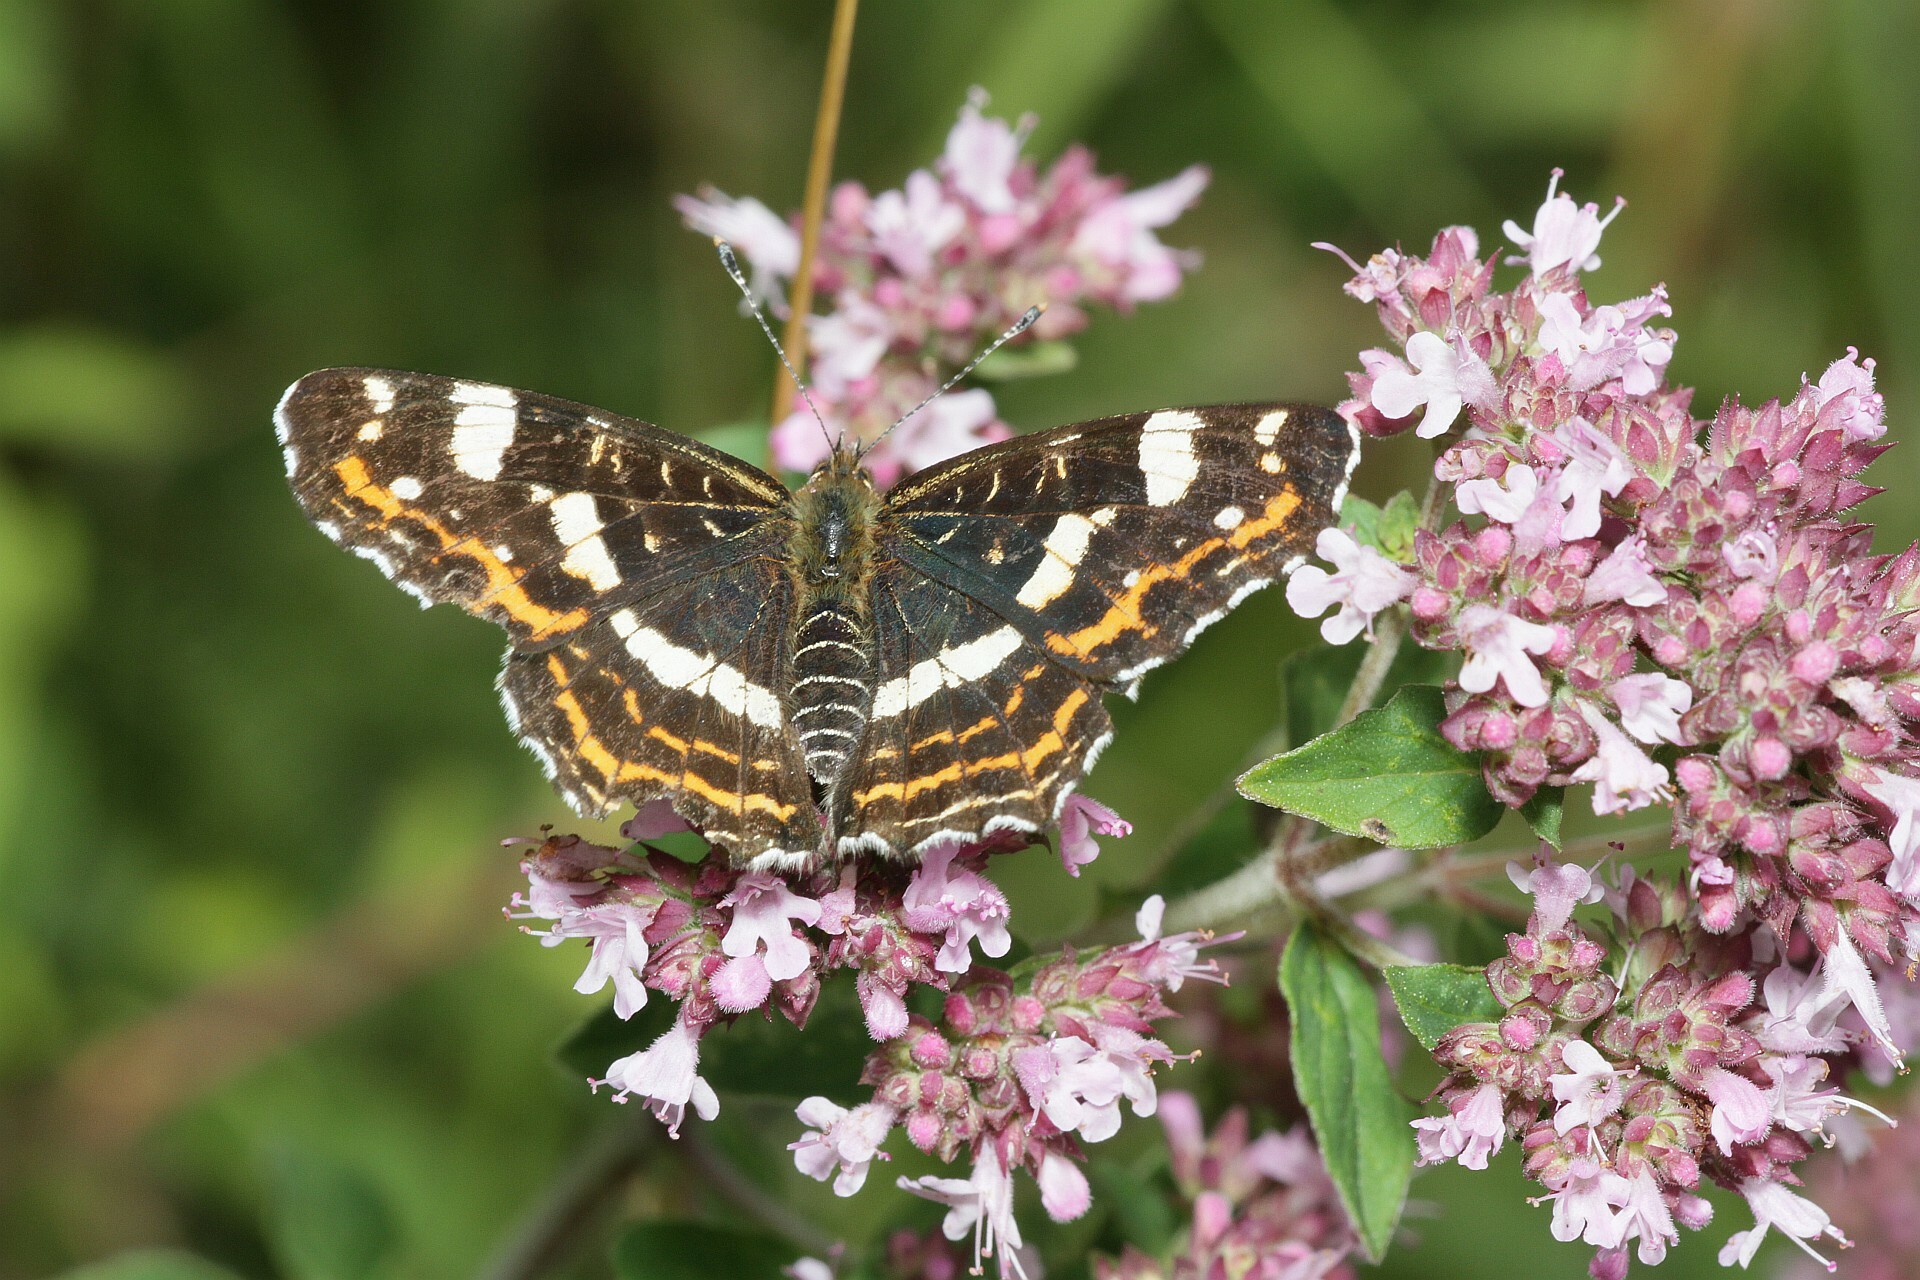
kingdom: Animalia
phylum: Arthropoda
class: Insecta
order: Lepidoptera
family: Nymphalidae
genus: Araschnia
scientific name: Araschnia levana
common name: Map butterfly
